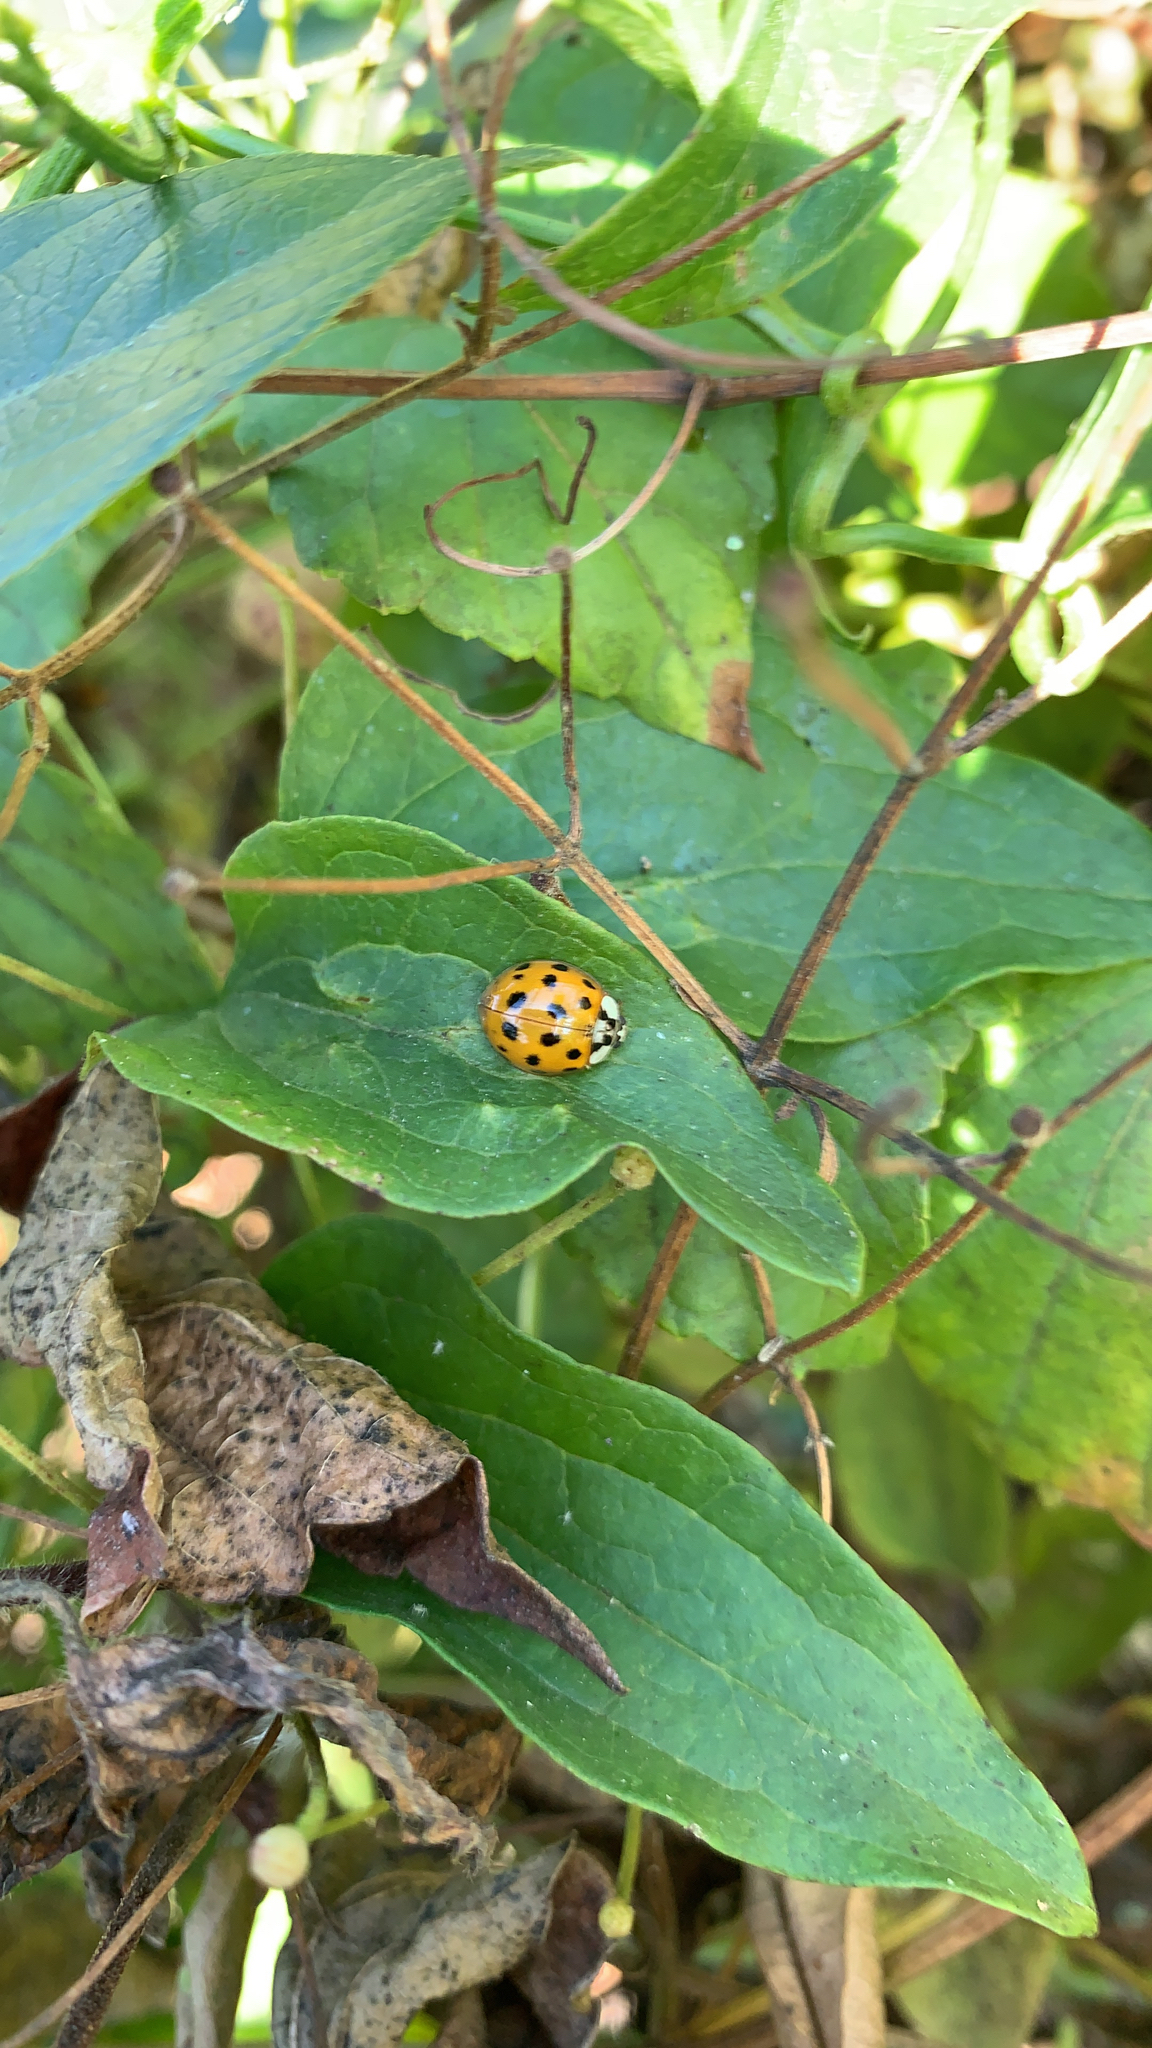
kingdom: Animalia
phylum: Arthropoda
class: Insecta
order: Coleoptera
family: Coccinellidae
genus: Harmonia
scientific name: Harmonia axyridis
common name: Harlequin ladybird
